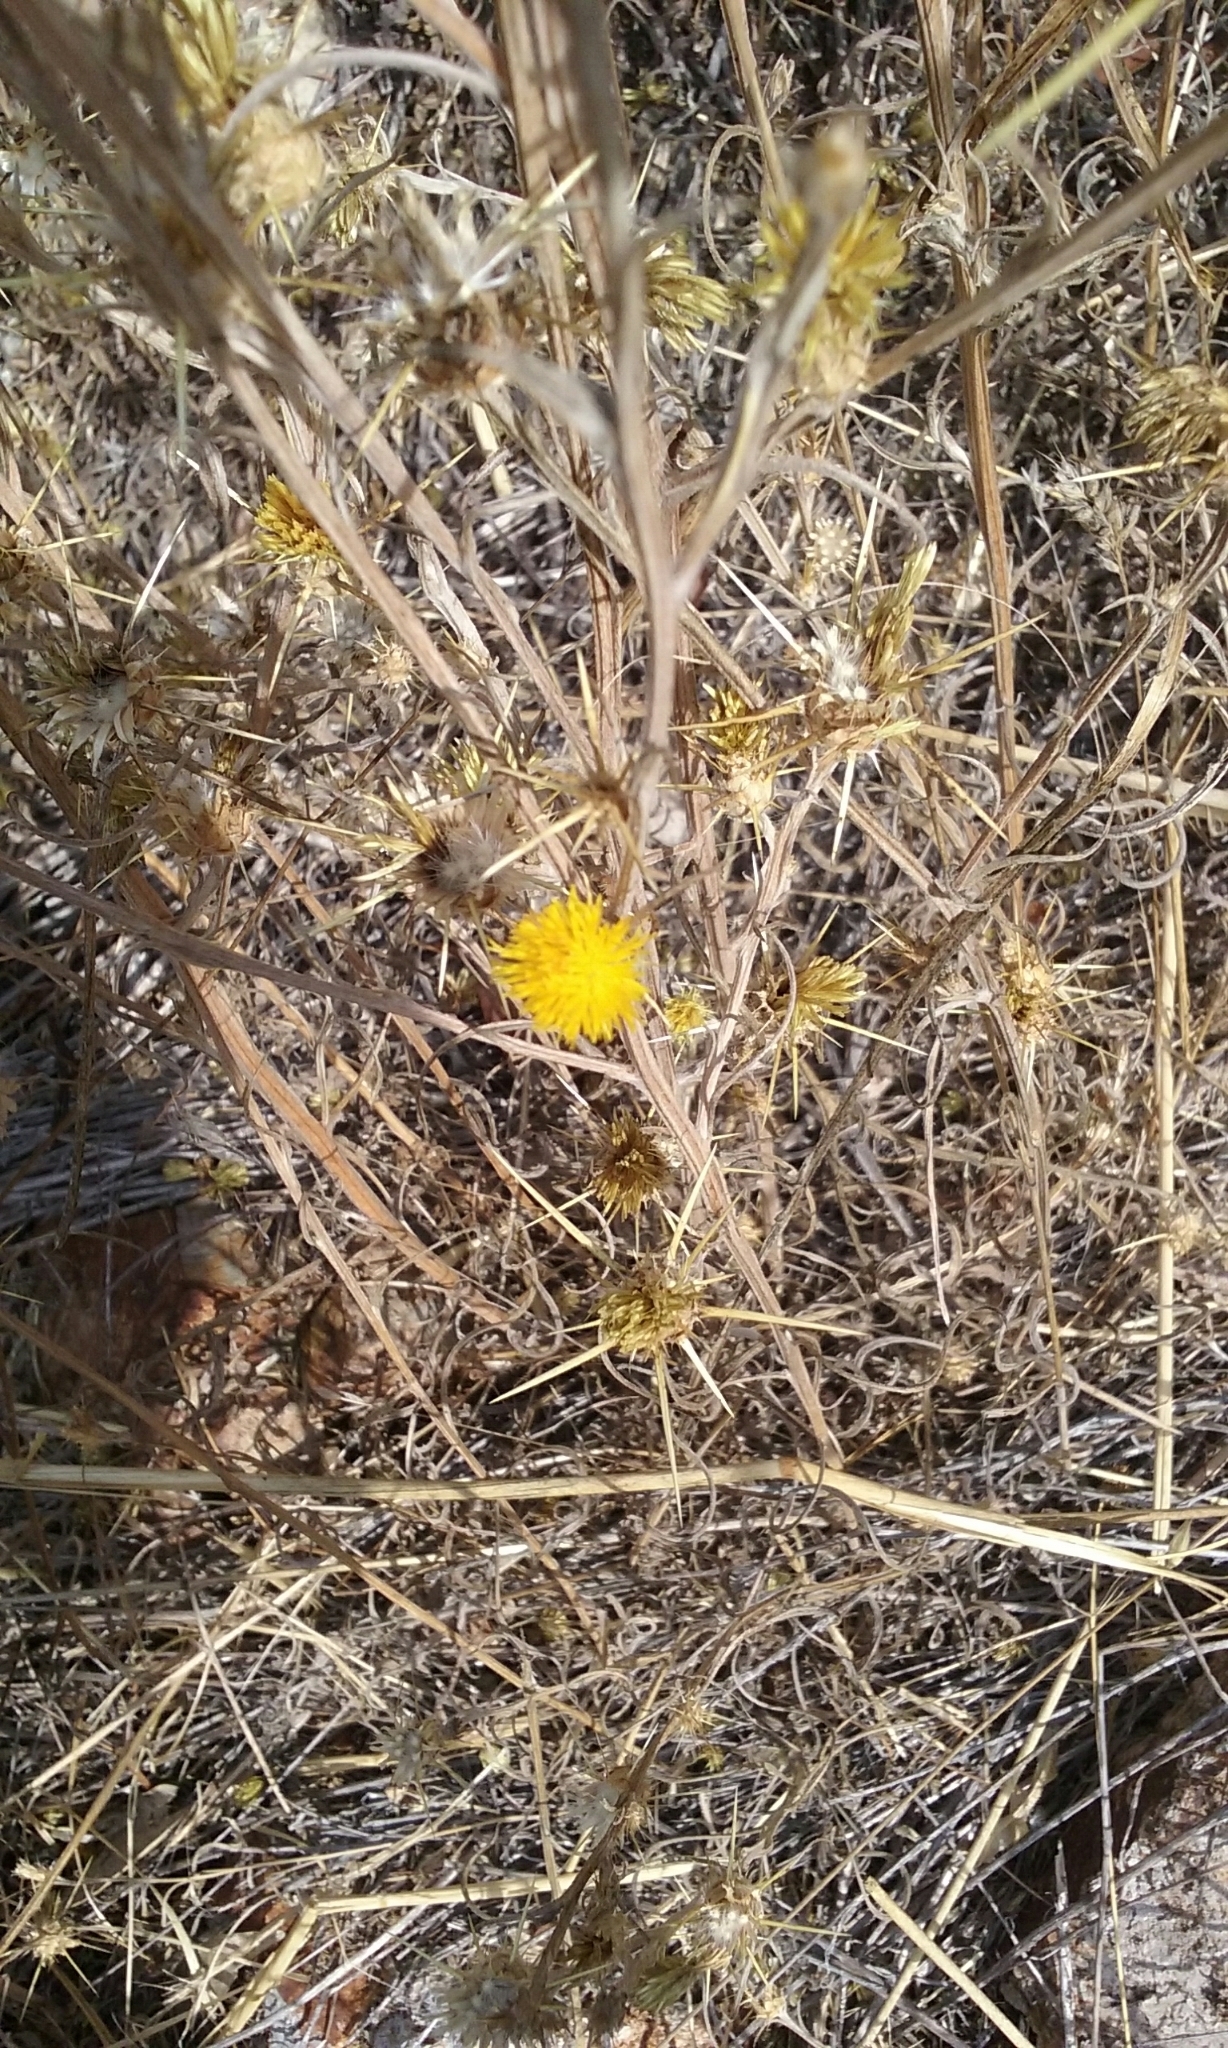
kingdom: Plantae
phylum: Tracheophyta
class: Magnoliopsida
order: Asterales
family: Asteraceae
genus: Centaurea
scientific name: Centaurea solstitialis
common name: Yellow star-thistle
